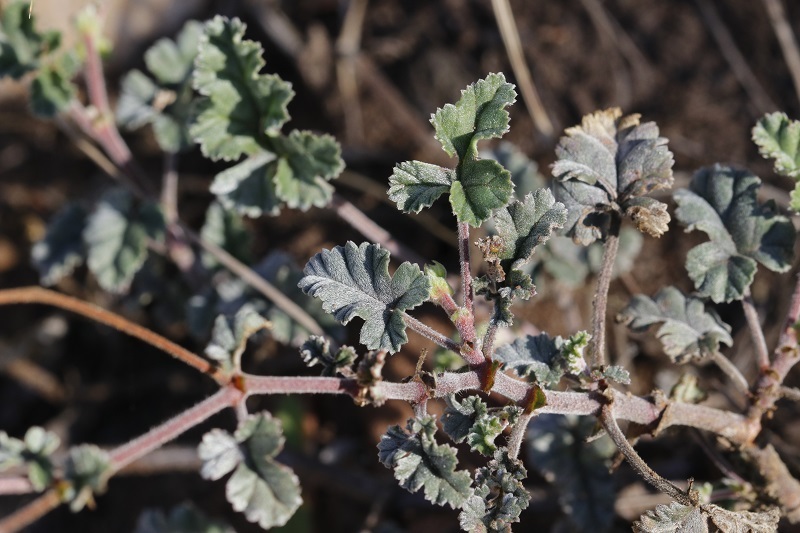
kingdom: Plantae
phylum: Tracheophyta
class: Magnoliopsida
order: Geraniales
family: Geraniaceae
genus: Pelargonium
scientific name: Pelargonium candicans
